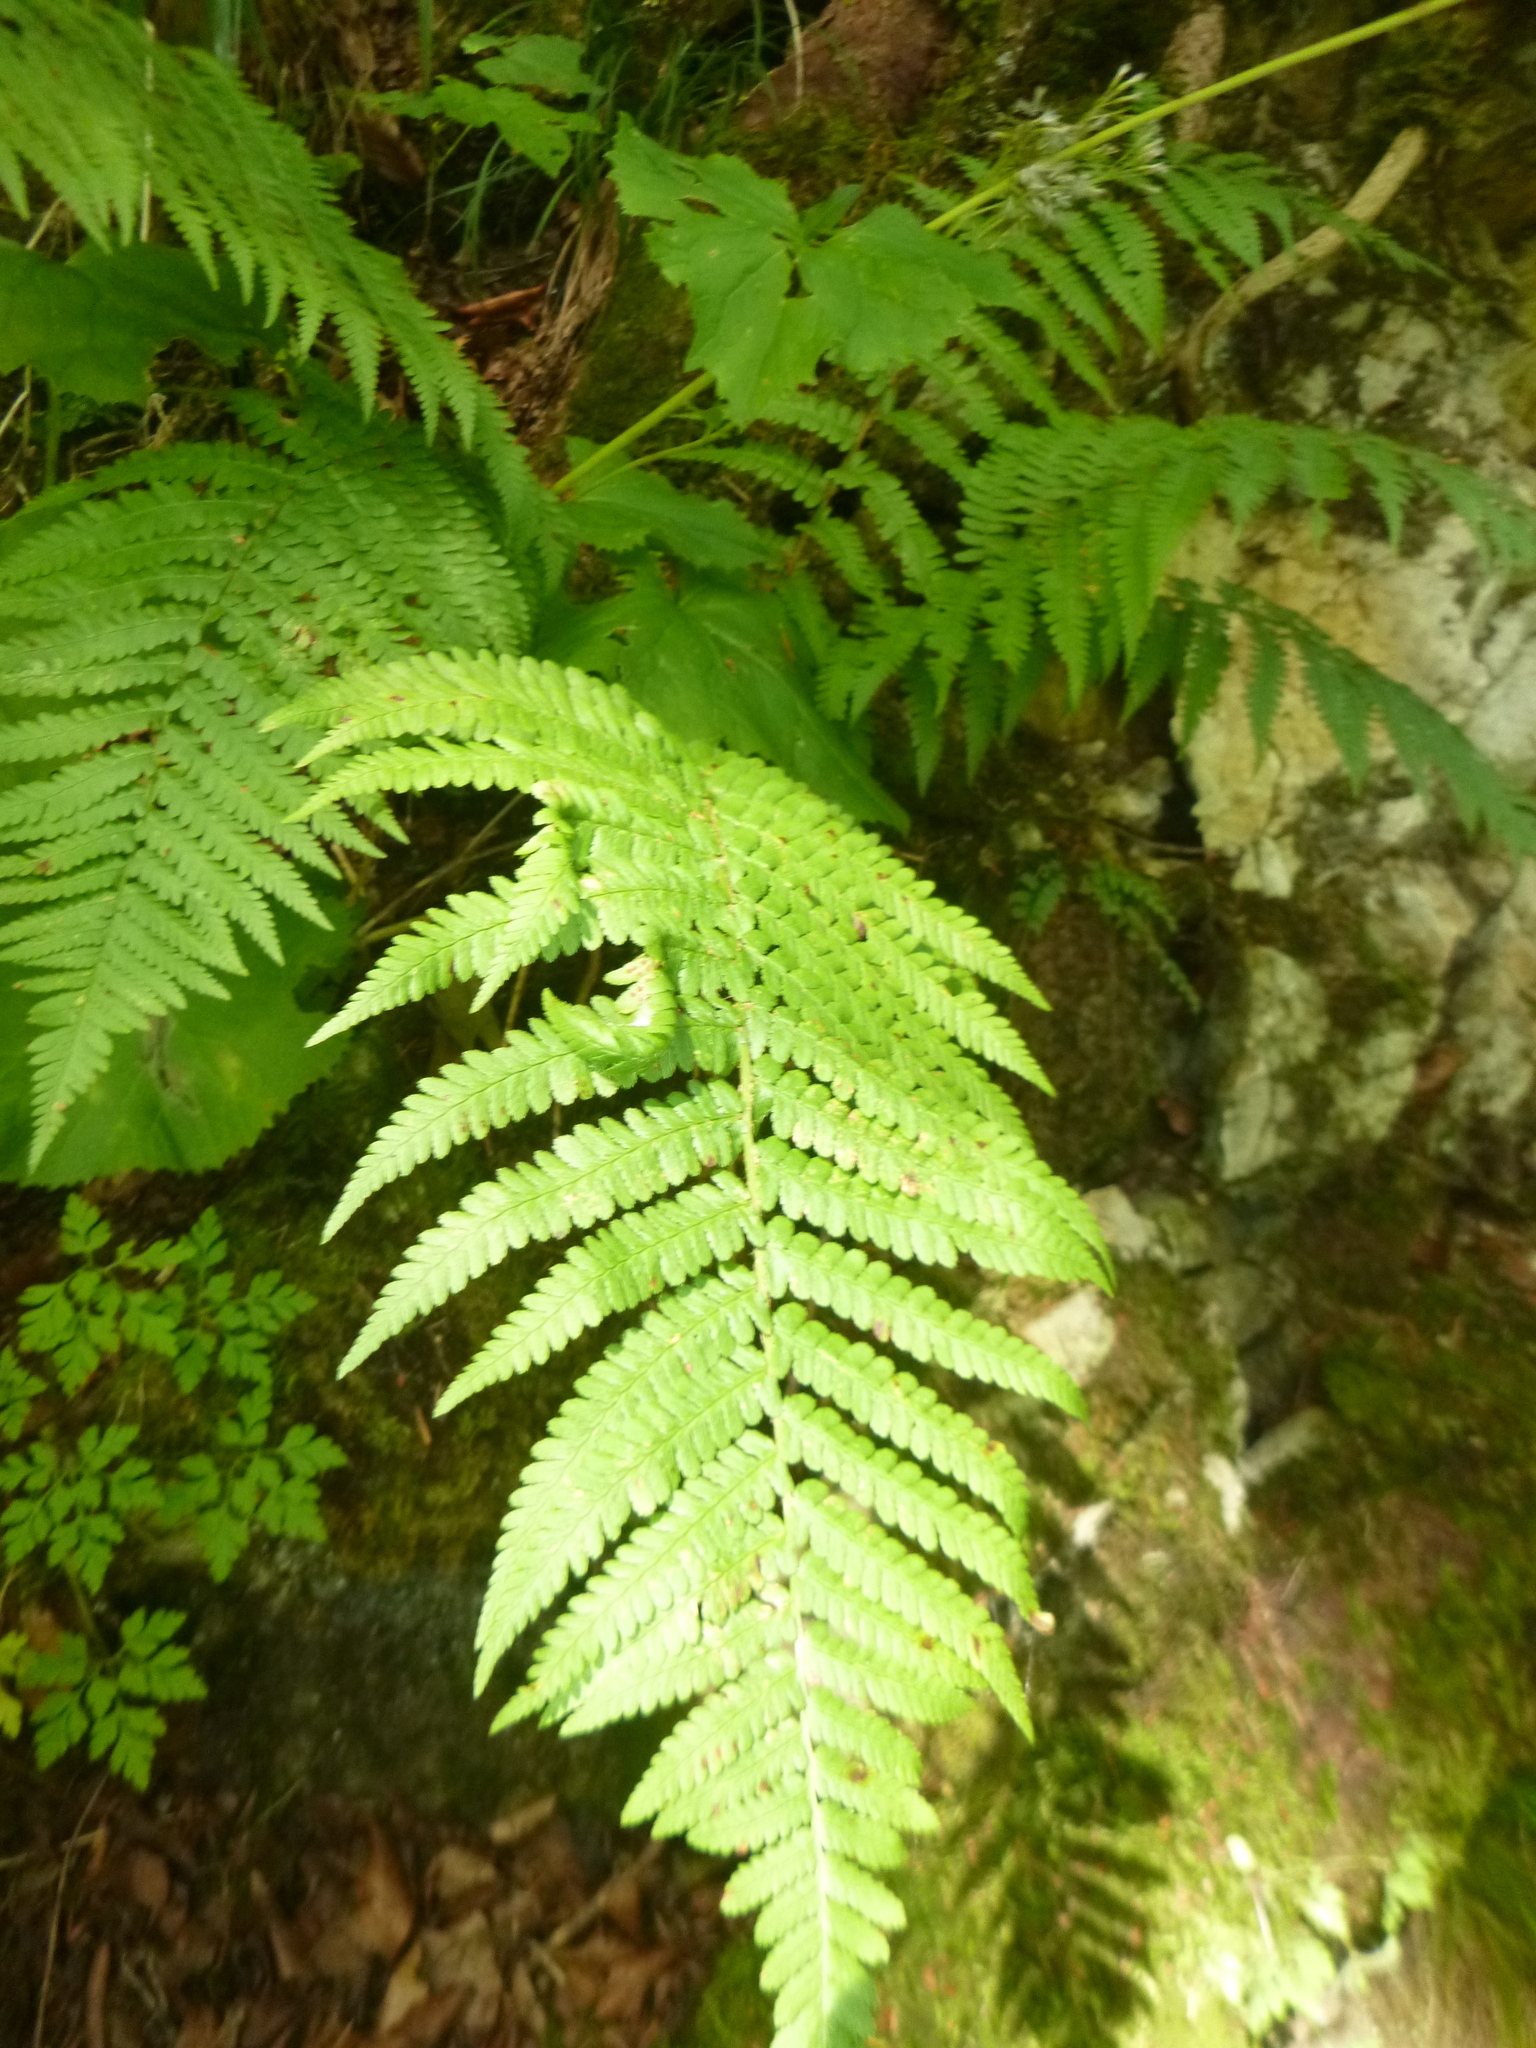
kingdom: Plantae
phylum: Tracheophyta
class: Polypodiopsida
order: Polypodiales
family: Dryopteridaceae
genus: Dryopteris
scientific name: Dryopteris filix-mas
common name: Male fern
